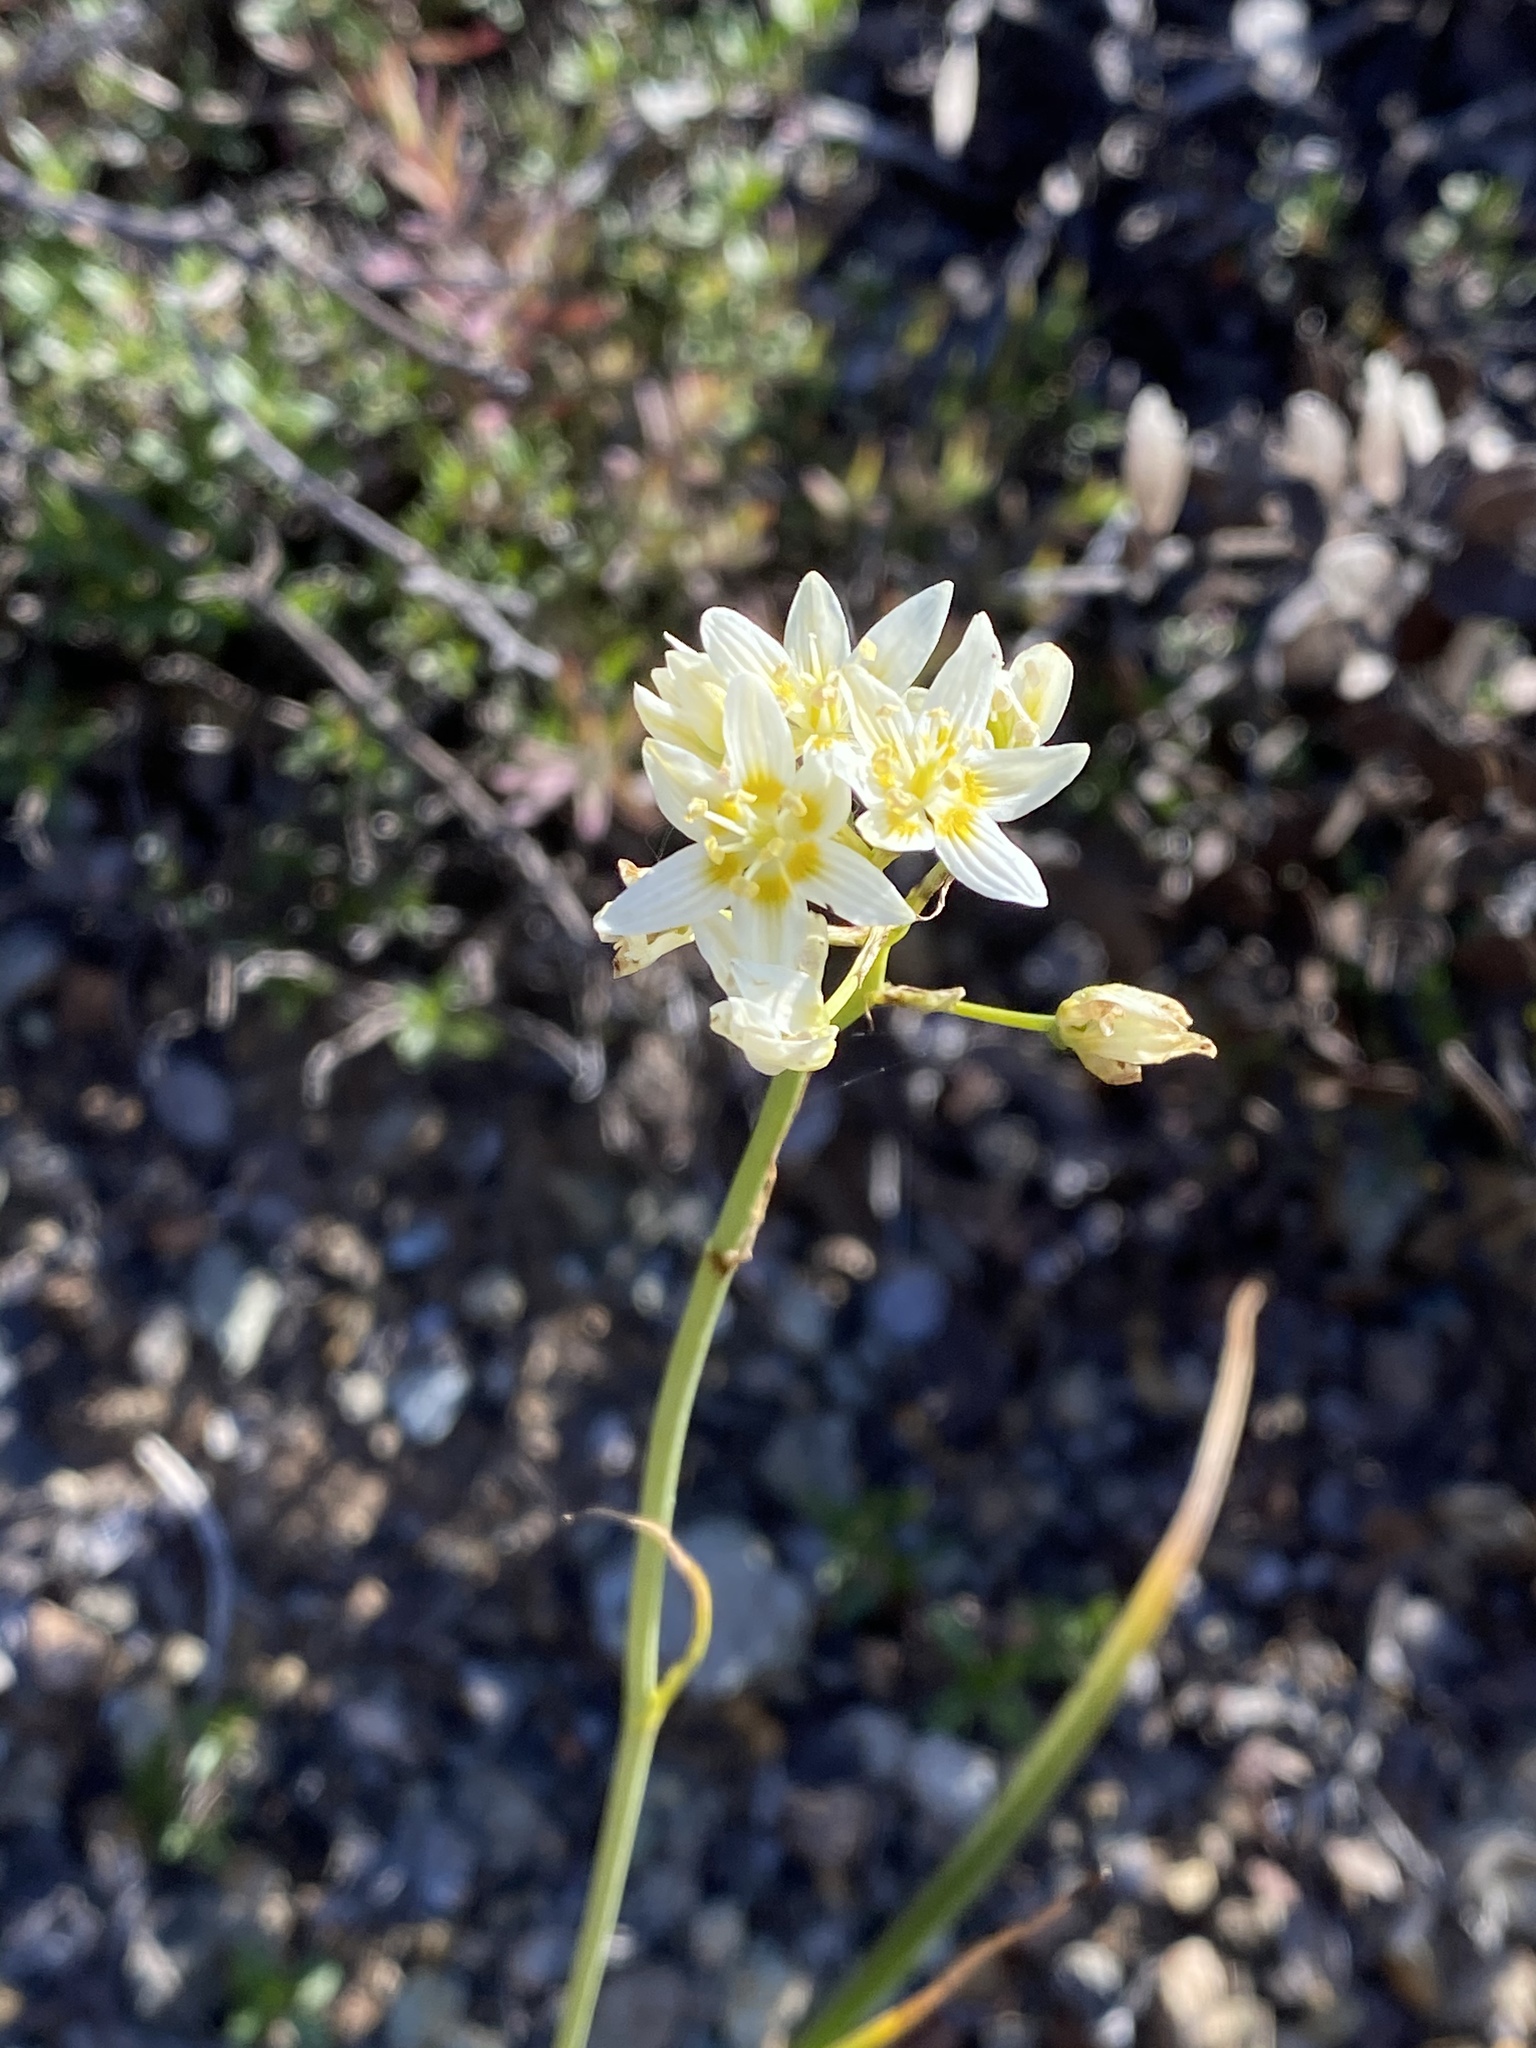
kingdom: Plantae
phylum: Tracheophyta
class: Liliopsida
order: Liliales
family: Melanthiaceae
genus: Toxicoscordion
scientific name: Toxicoscordion fremontii
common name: Fremont's death camas
